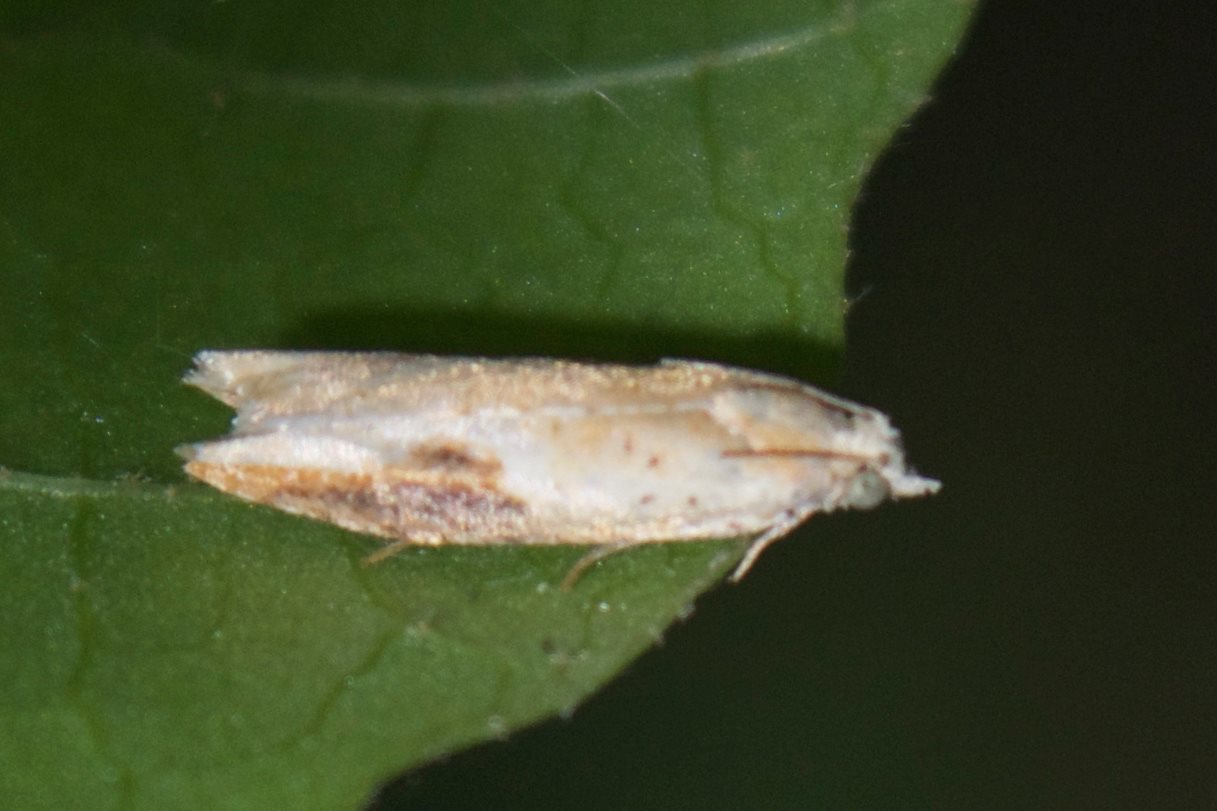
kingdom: Animalia
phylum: Arthropoda
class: Insecta
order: Lepidoptera
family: Tortricidae
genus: Pseudexentera
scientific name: Pseudexentera costomaculana
